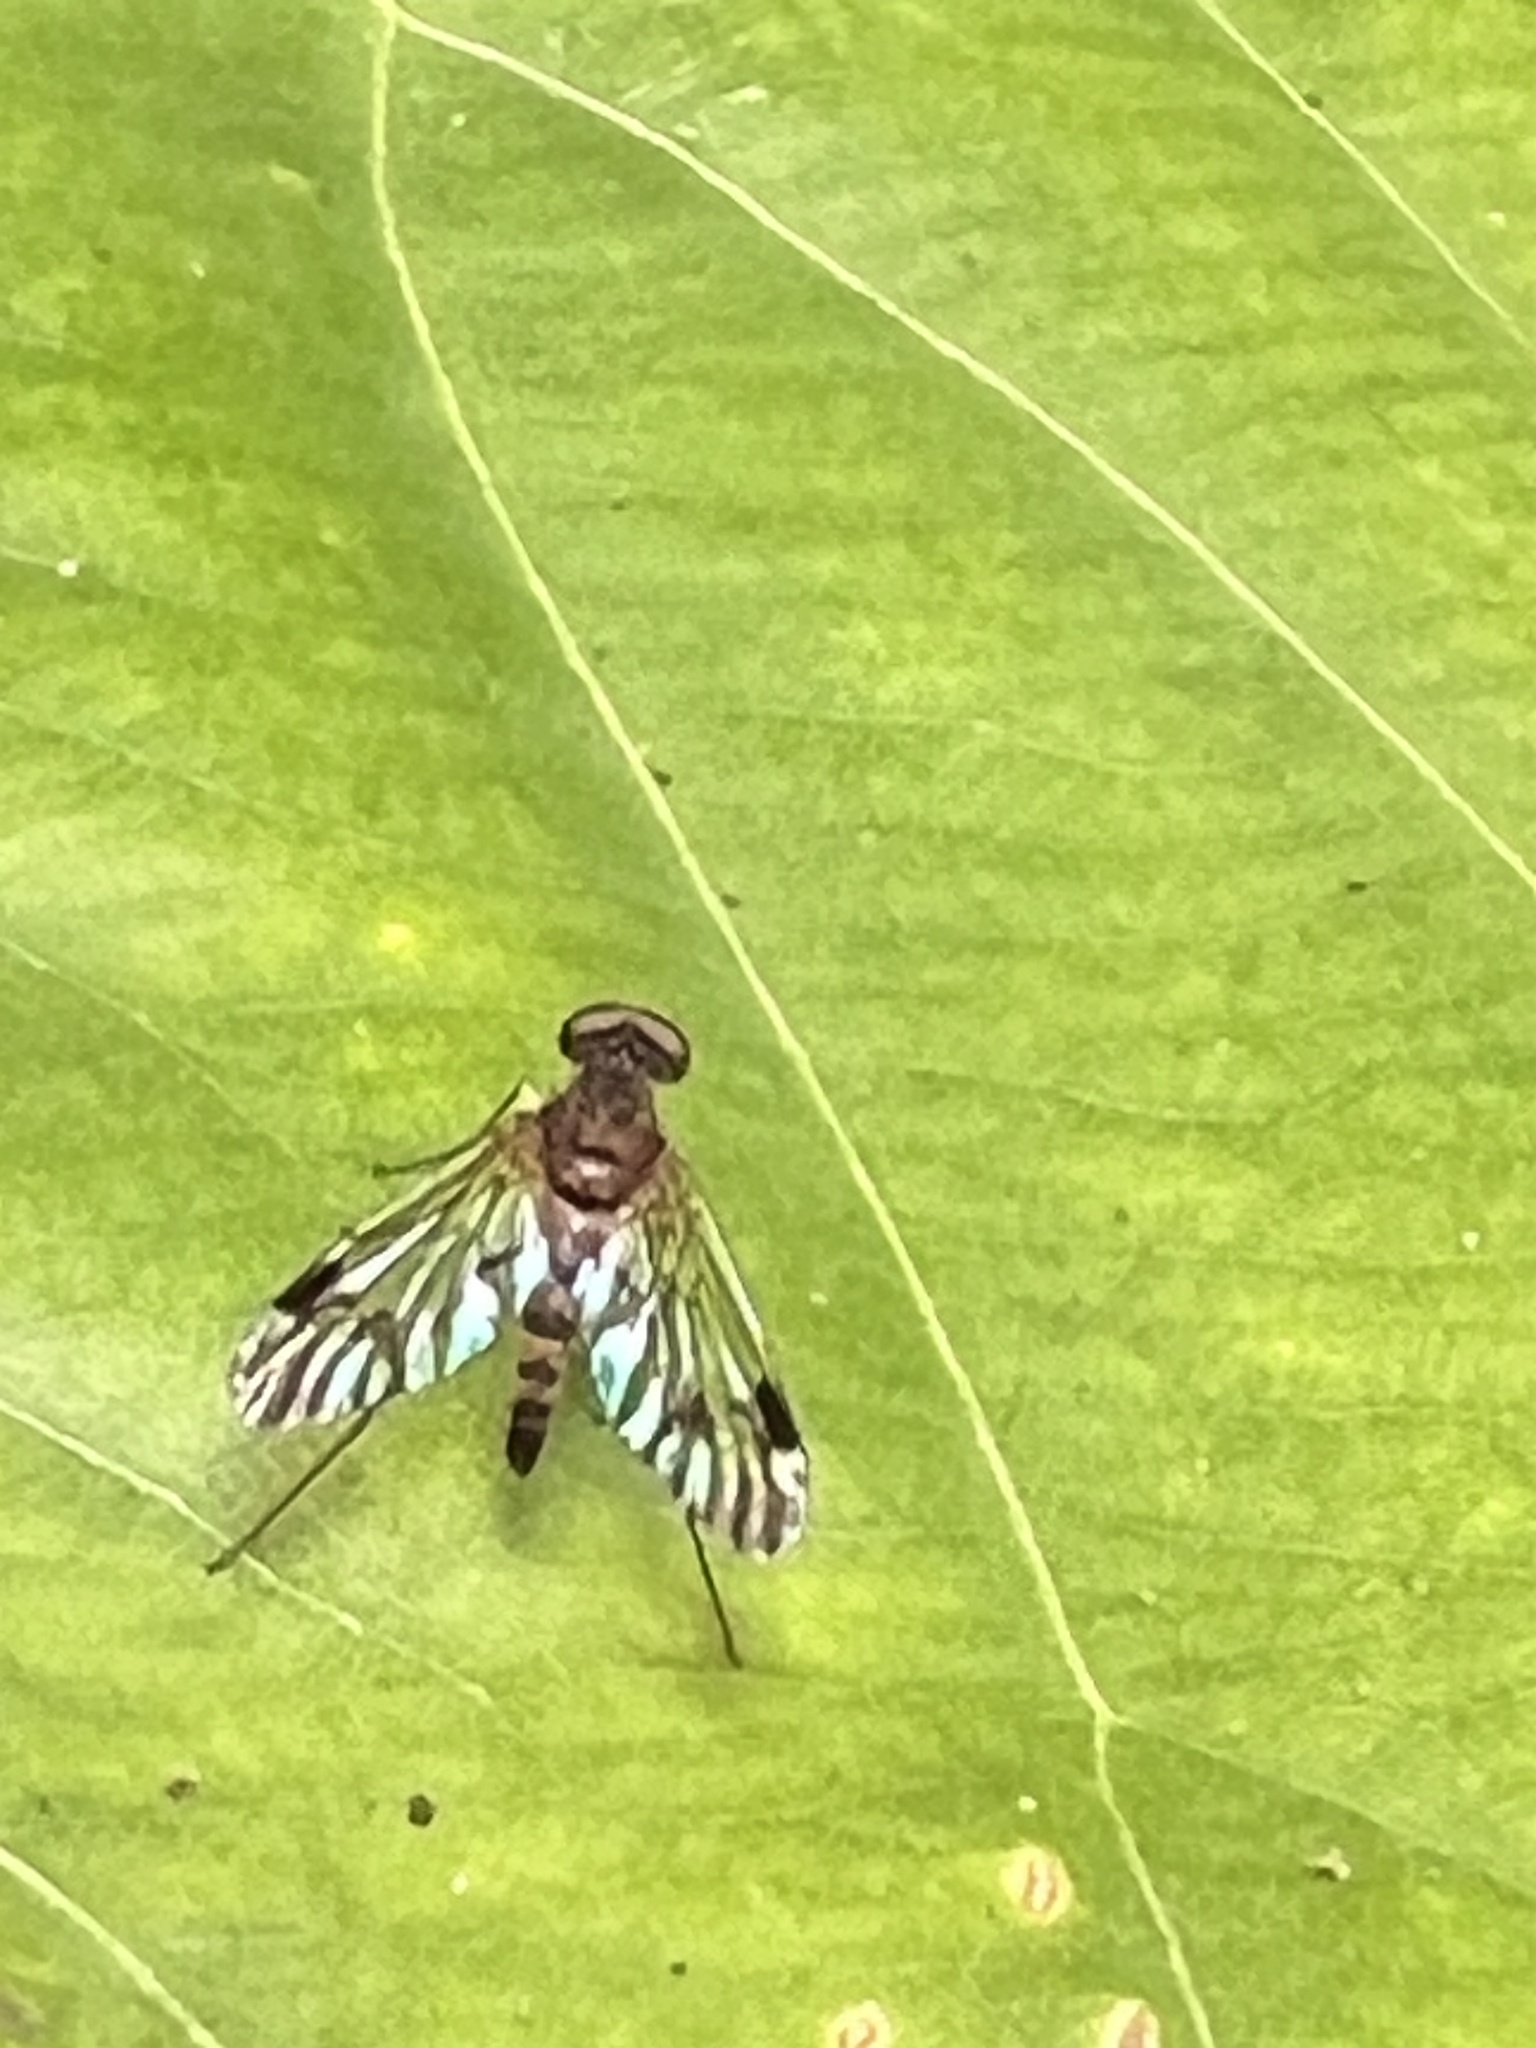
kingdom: Animalia
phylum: Arthropoda
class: Insecta
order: Diptera
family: Rhagionidae
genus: Chrysopilus
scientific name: Chrysopilus mackerrasi
